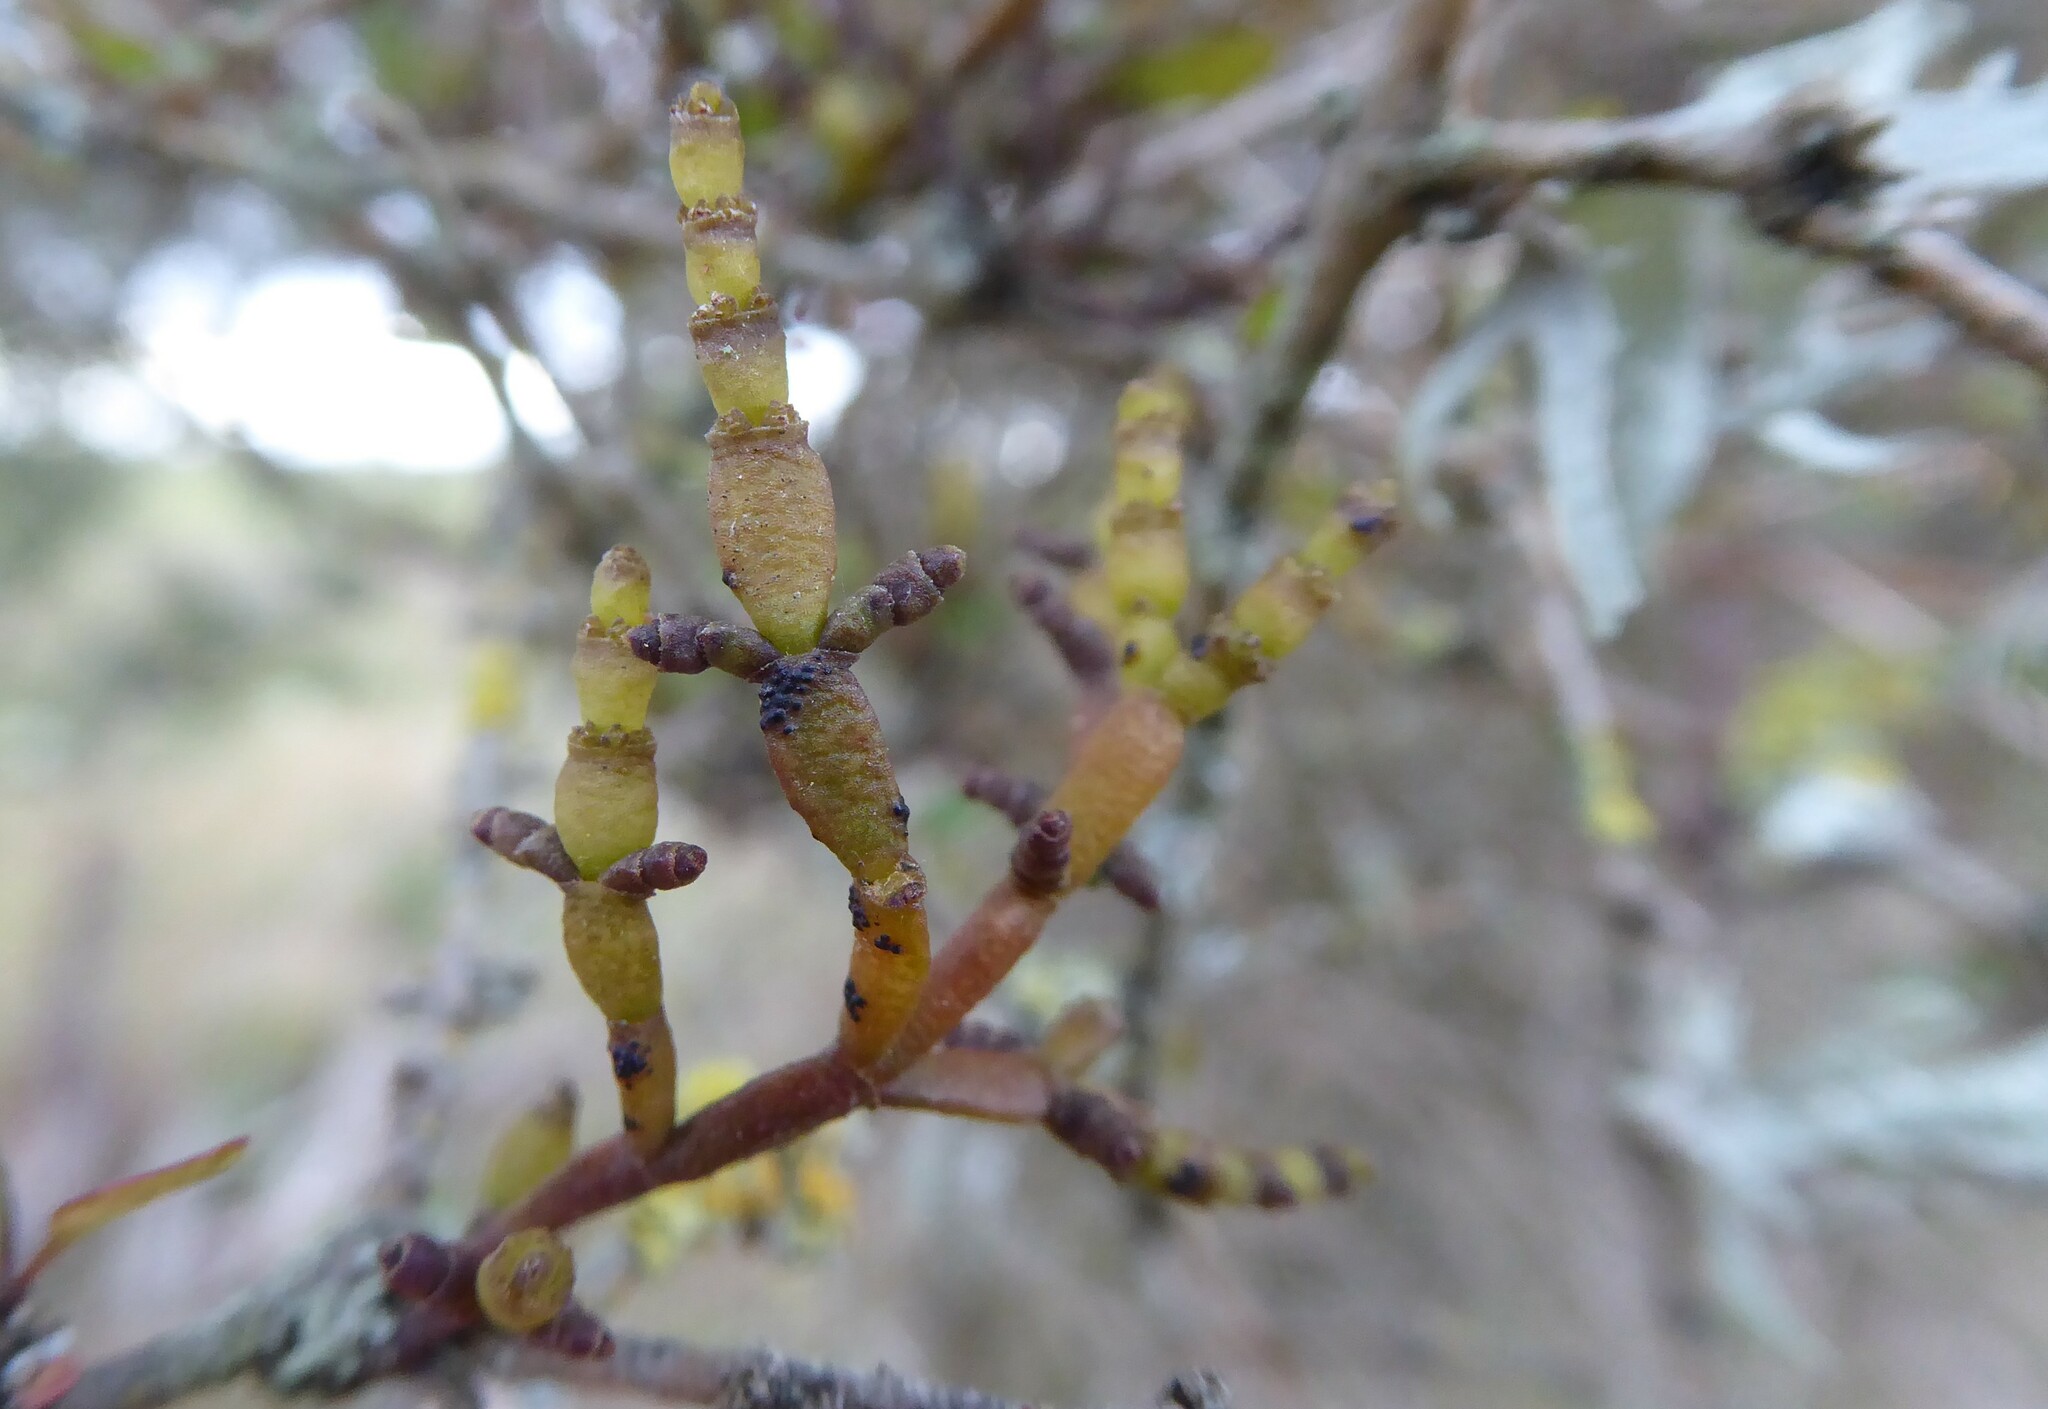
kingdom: Plantae
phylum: Tracheophyta
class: Magnoliopsida
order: Santalales
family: Viscaceae
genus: Korthalsella
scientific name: Korthalsella clavata
